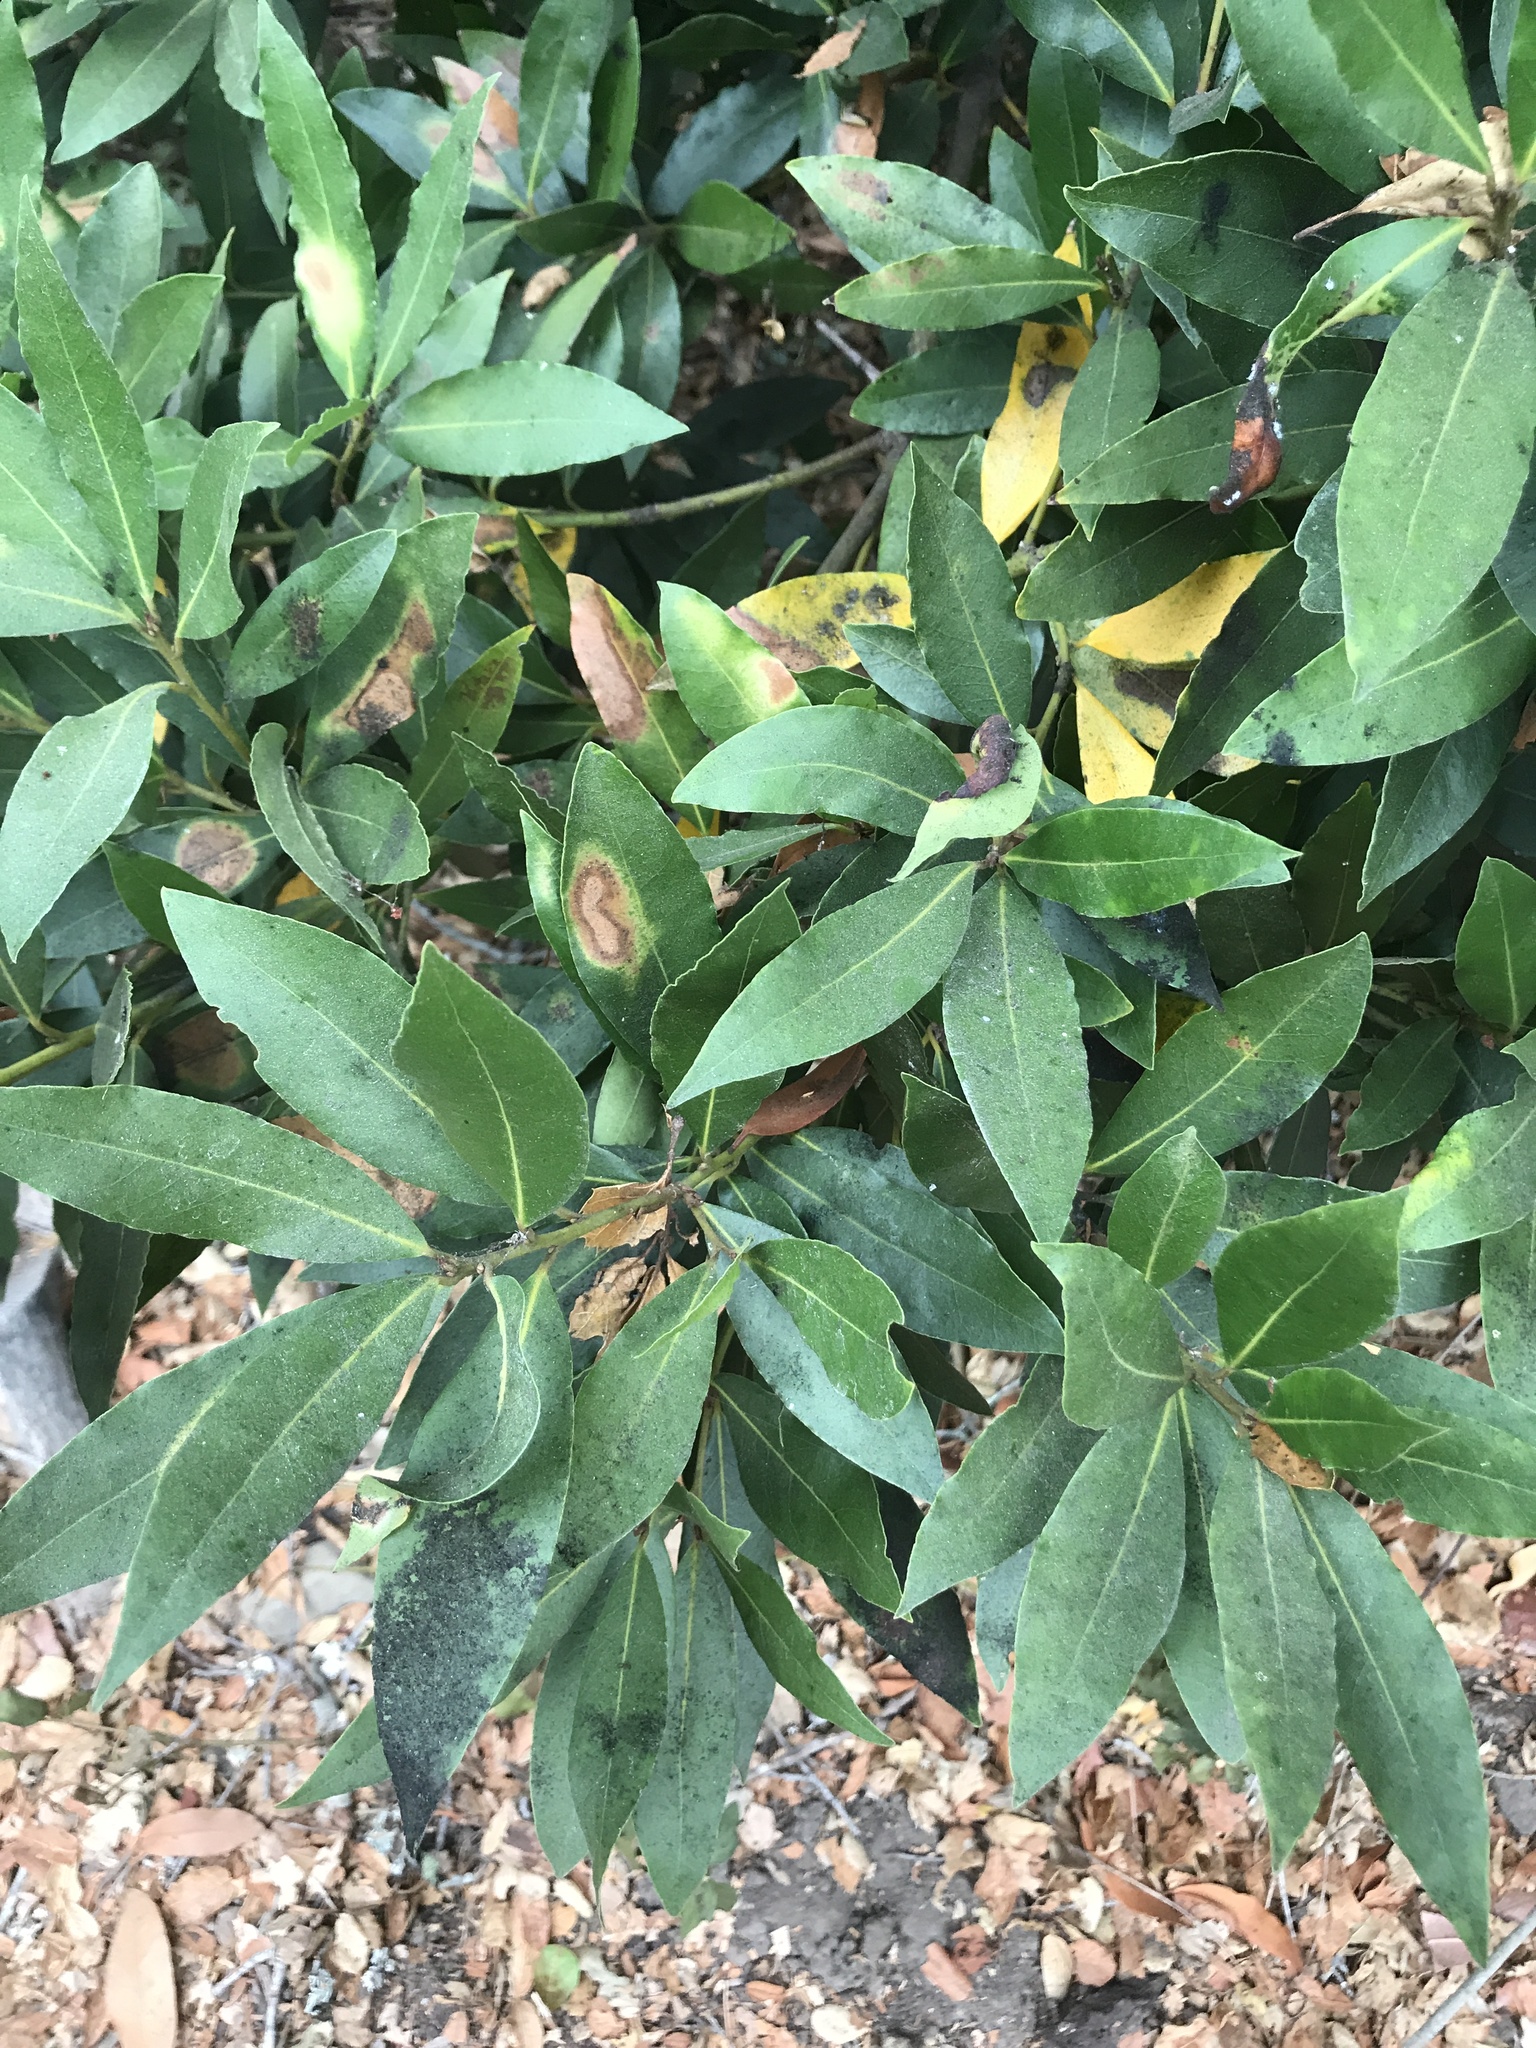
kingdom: Plantae
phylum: Tracheophyta
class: Magnoliopsida
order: Laurales
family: Lauraceae
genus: Umbellularia
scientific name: Umbellularia californica
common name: California bay
